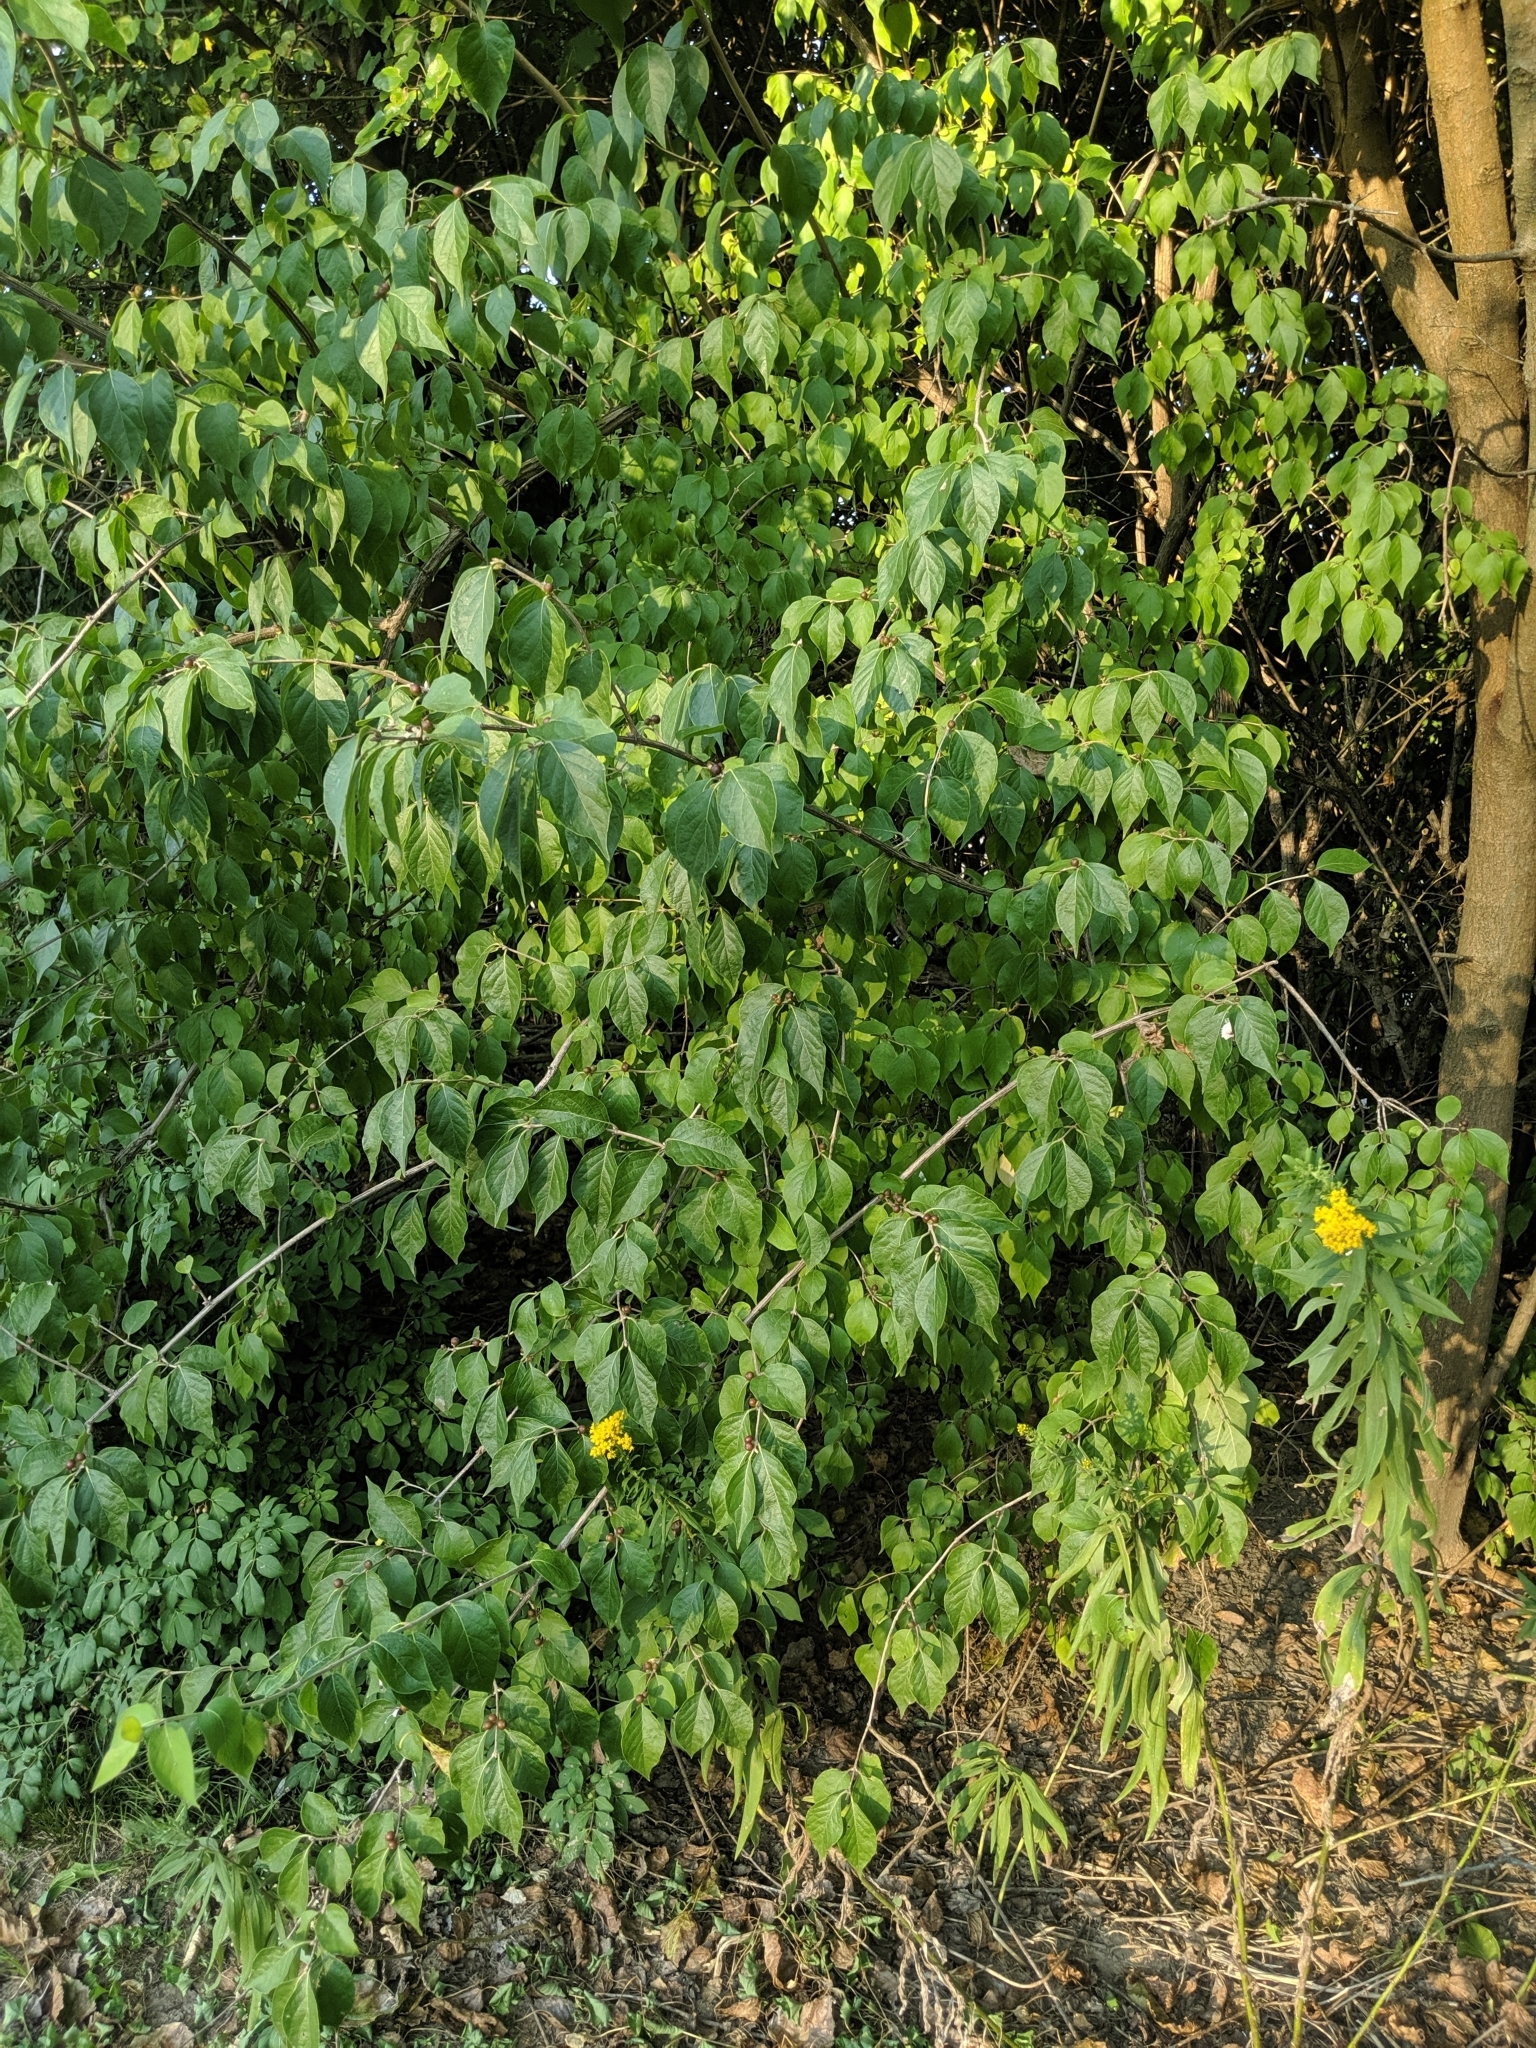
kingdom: Plantae
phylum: Tracheophyta
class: Magnoliopsida
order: Dipsacales
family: Caprifoliaceae
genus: Lonicera
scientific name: Lonicera maackii
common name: Amur honeysuckle
